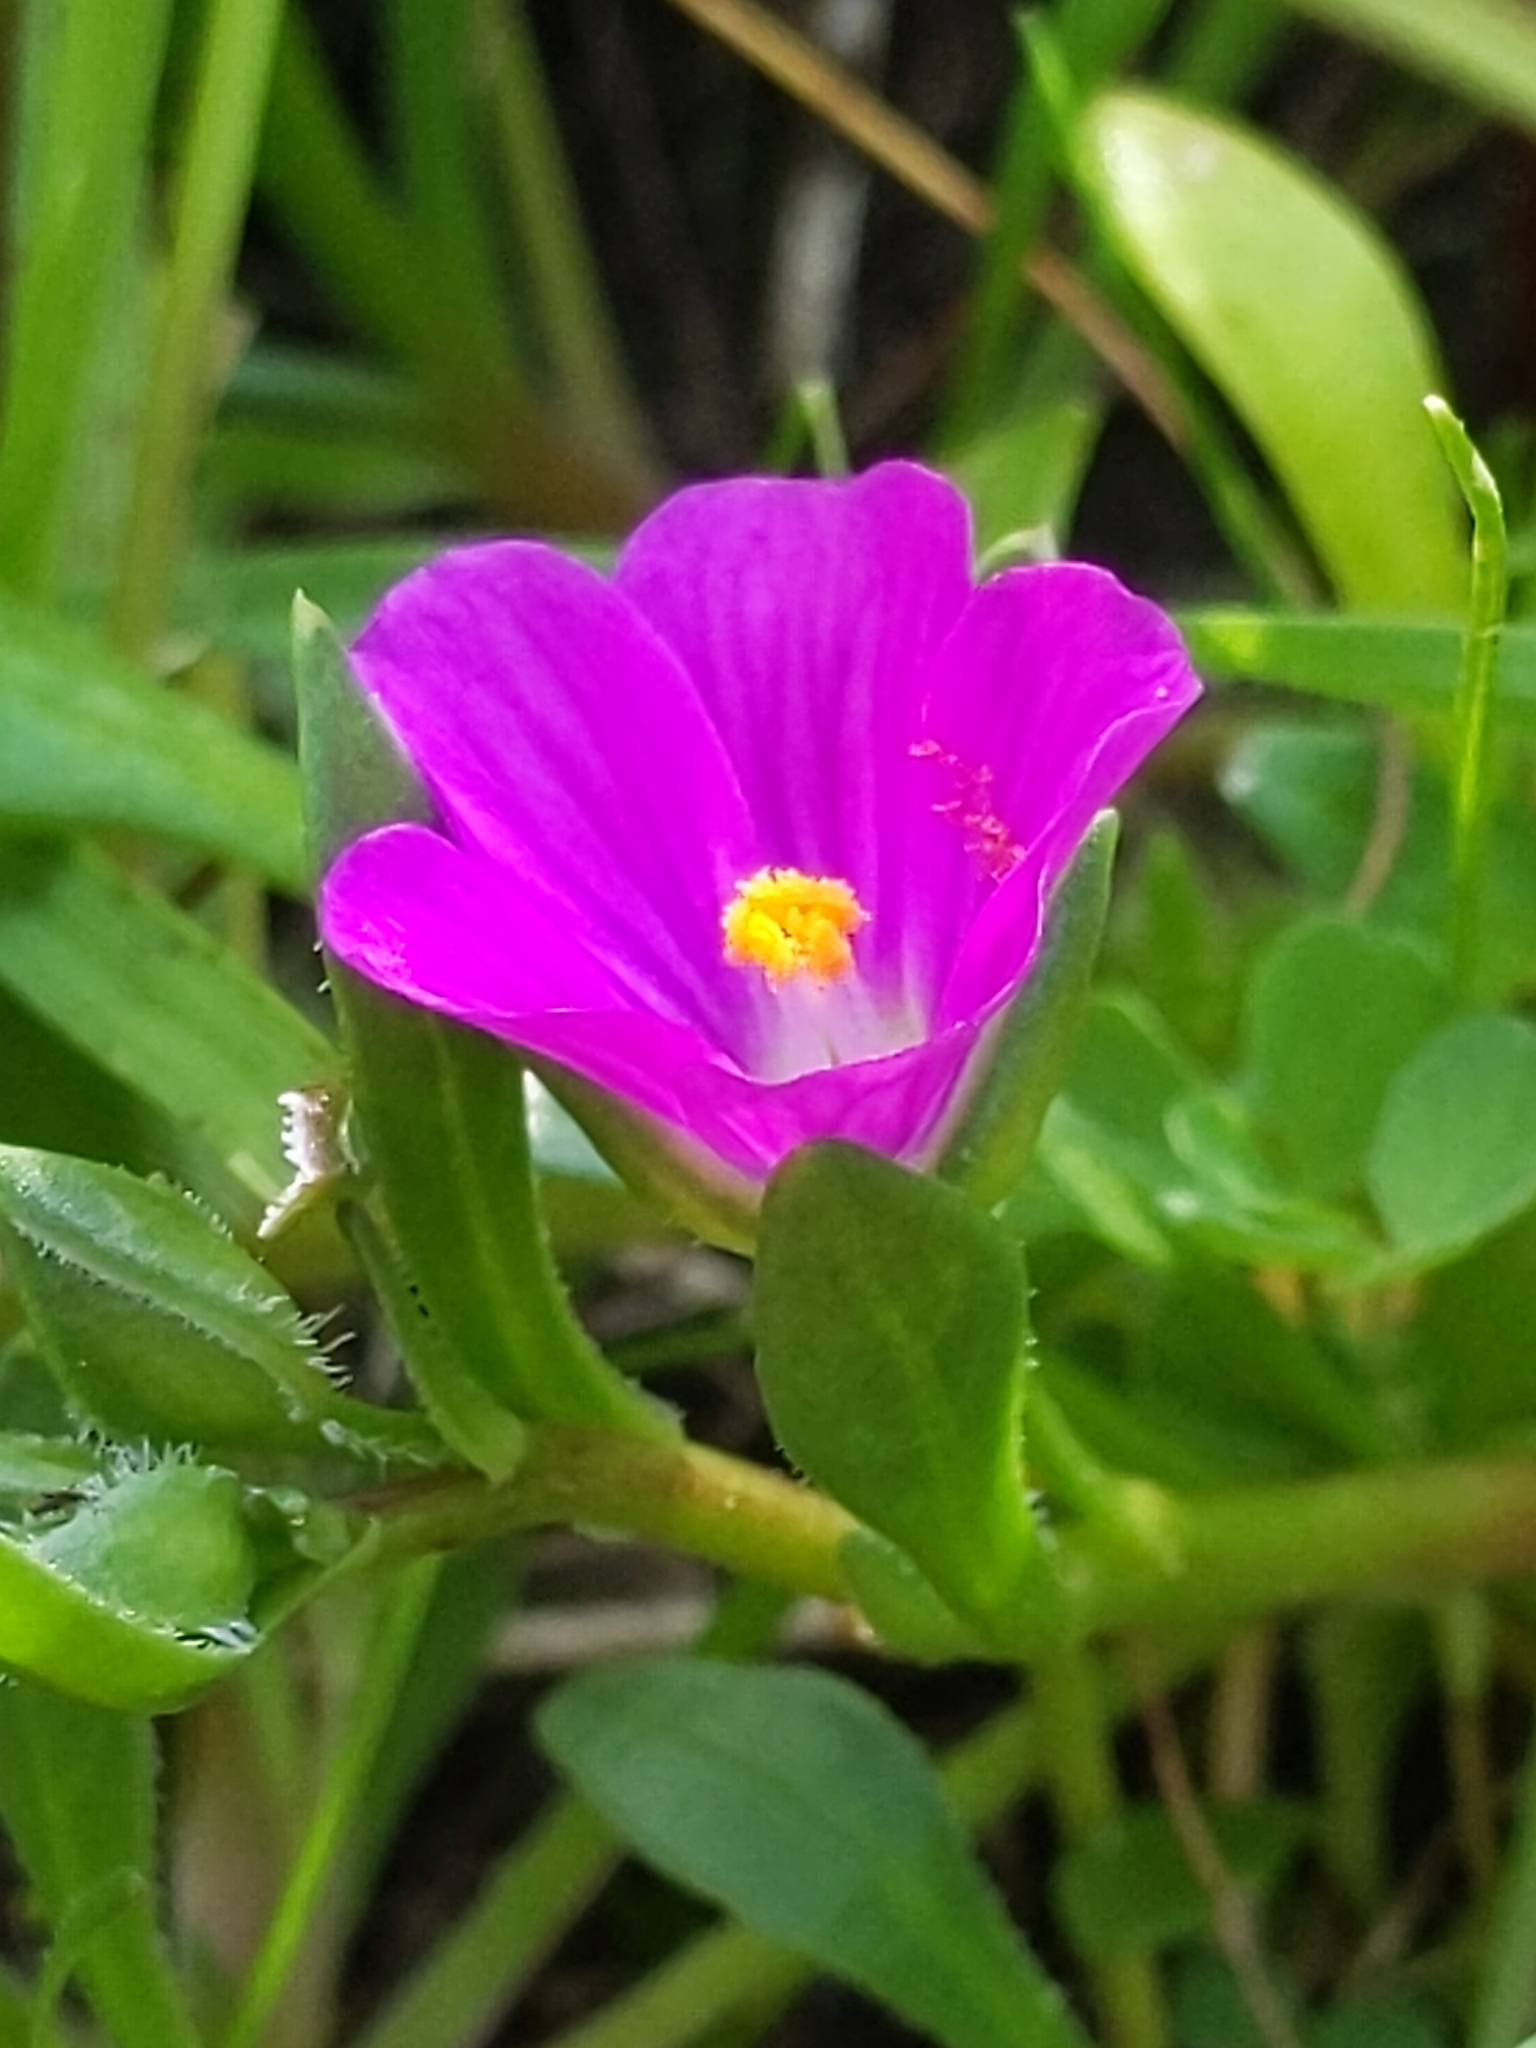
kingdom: Plantae
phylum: Tracheophyta
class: Magnoliopsida
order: Caryophyllales
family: Montiaceae
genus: Calandrinia
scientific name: Calandrinia menziesii
